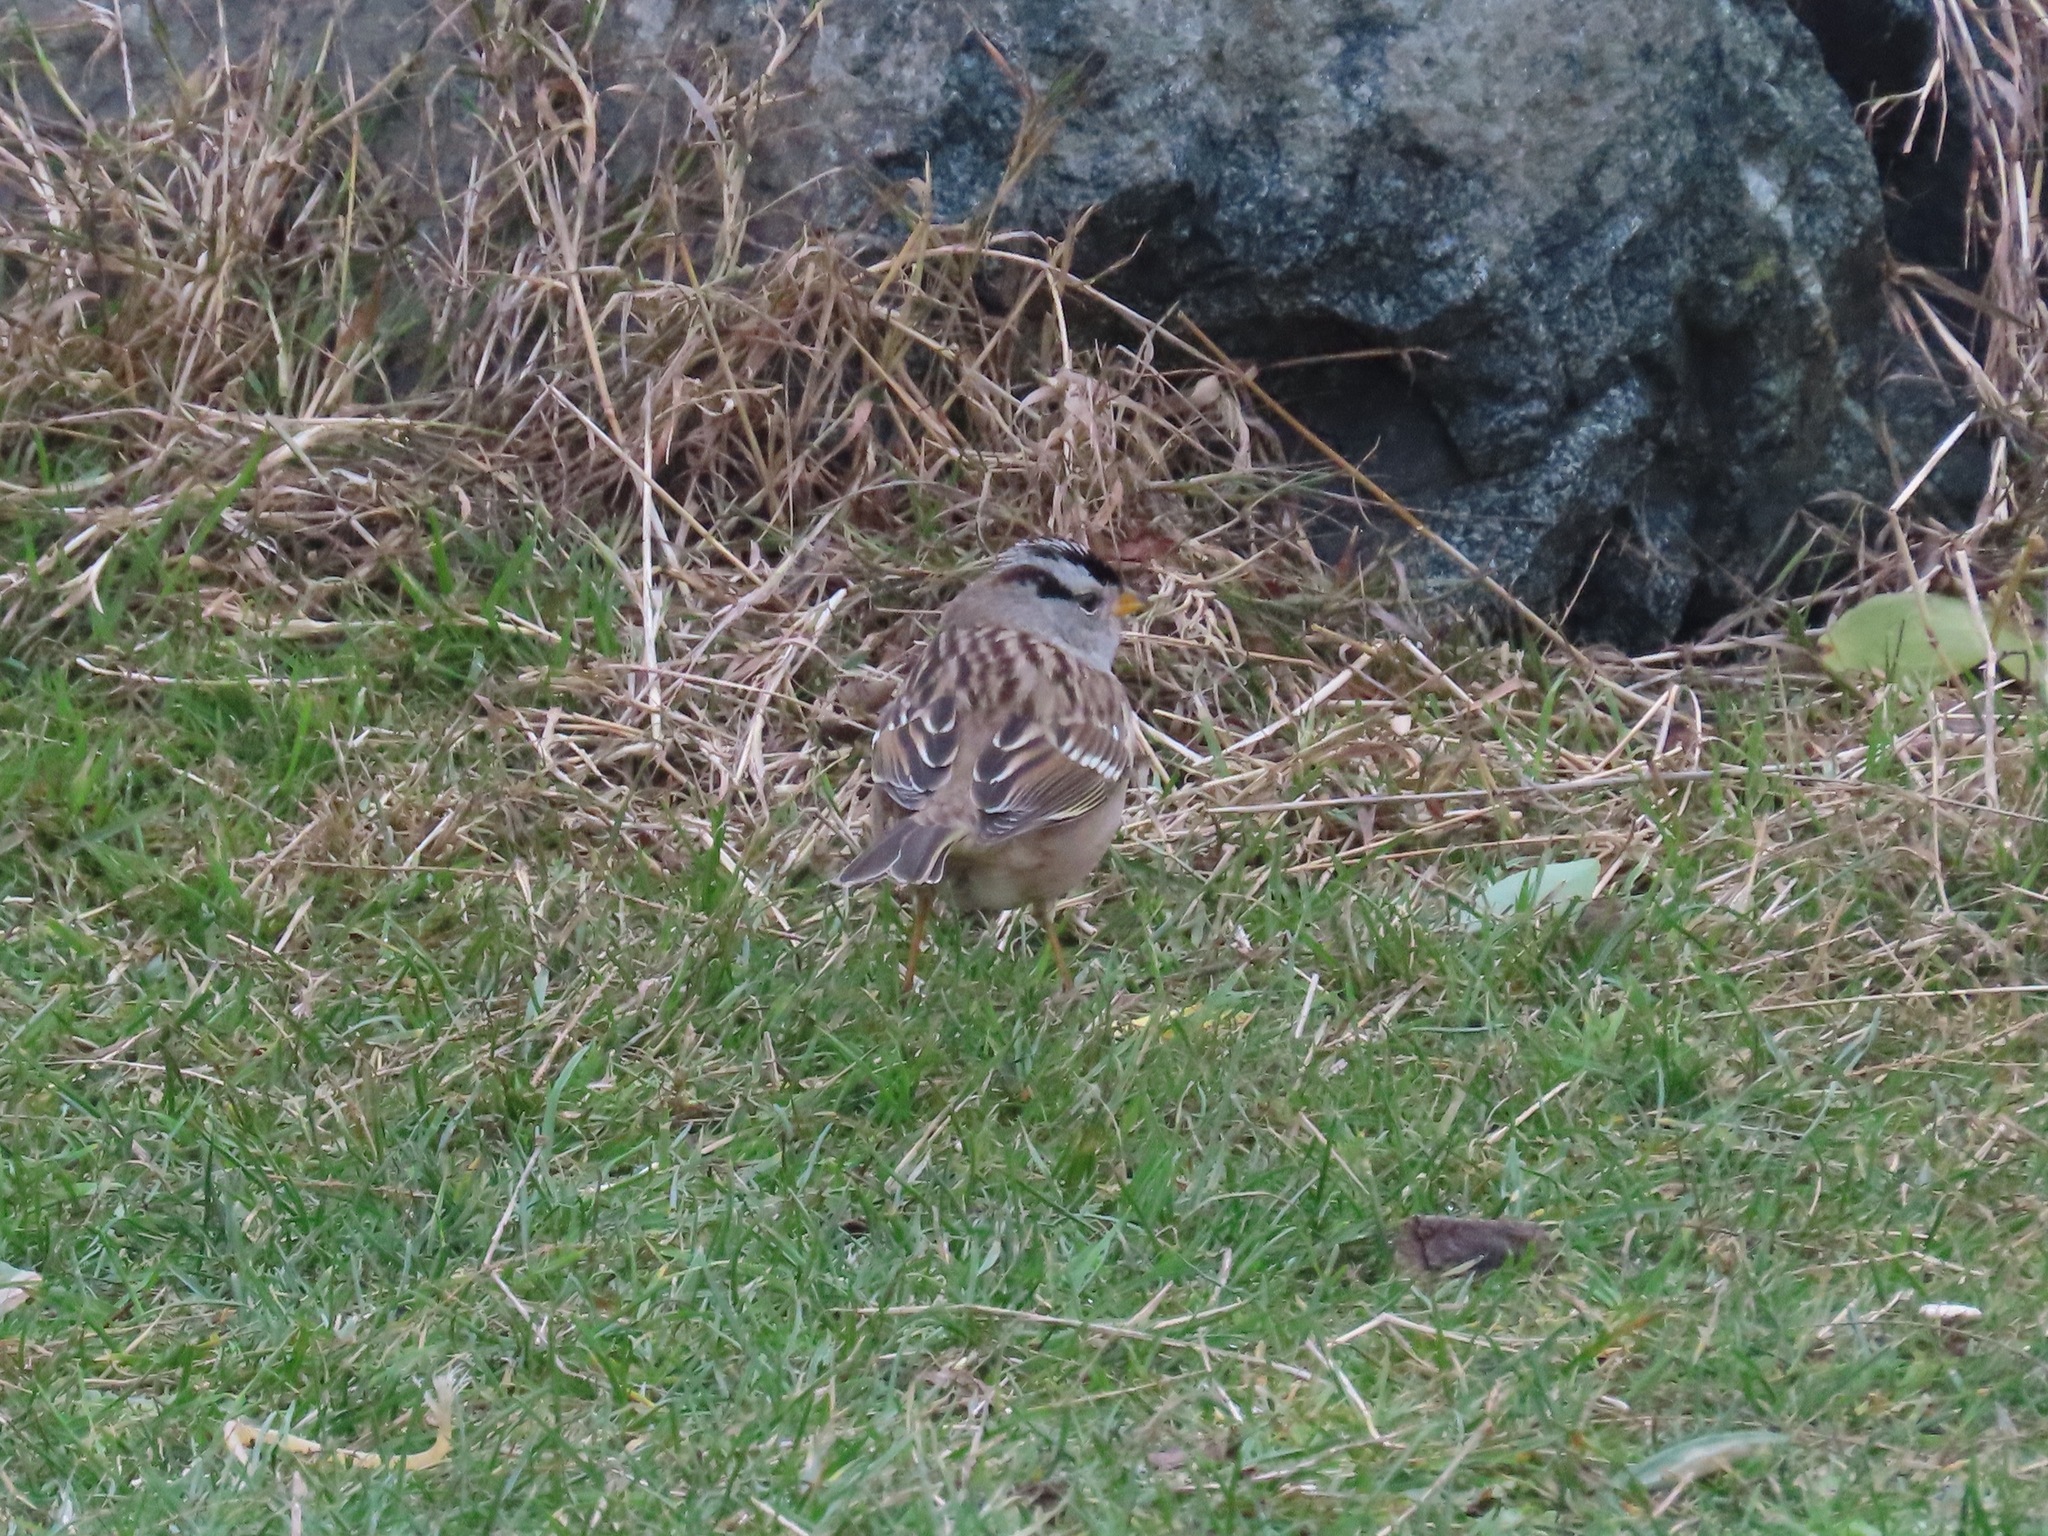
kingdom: Animalia
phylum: Chordata
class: Aves
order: Passeriformes
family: Passerellidae
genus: Zonotrichia
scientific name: Zonotrichia leucophrys
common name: White-crowned sparrow
